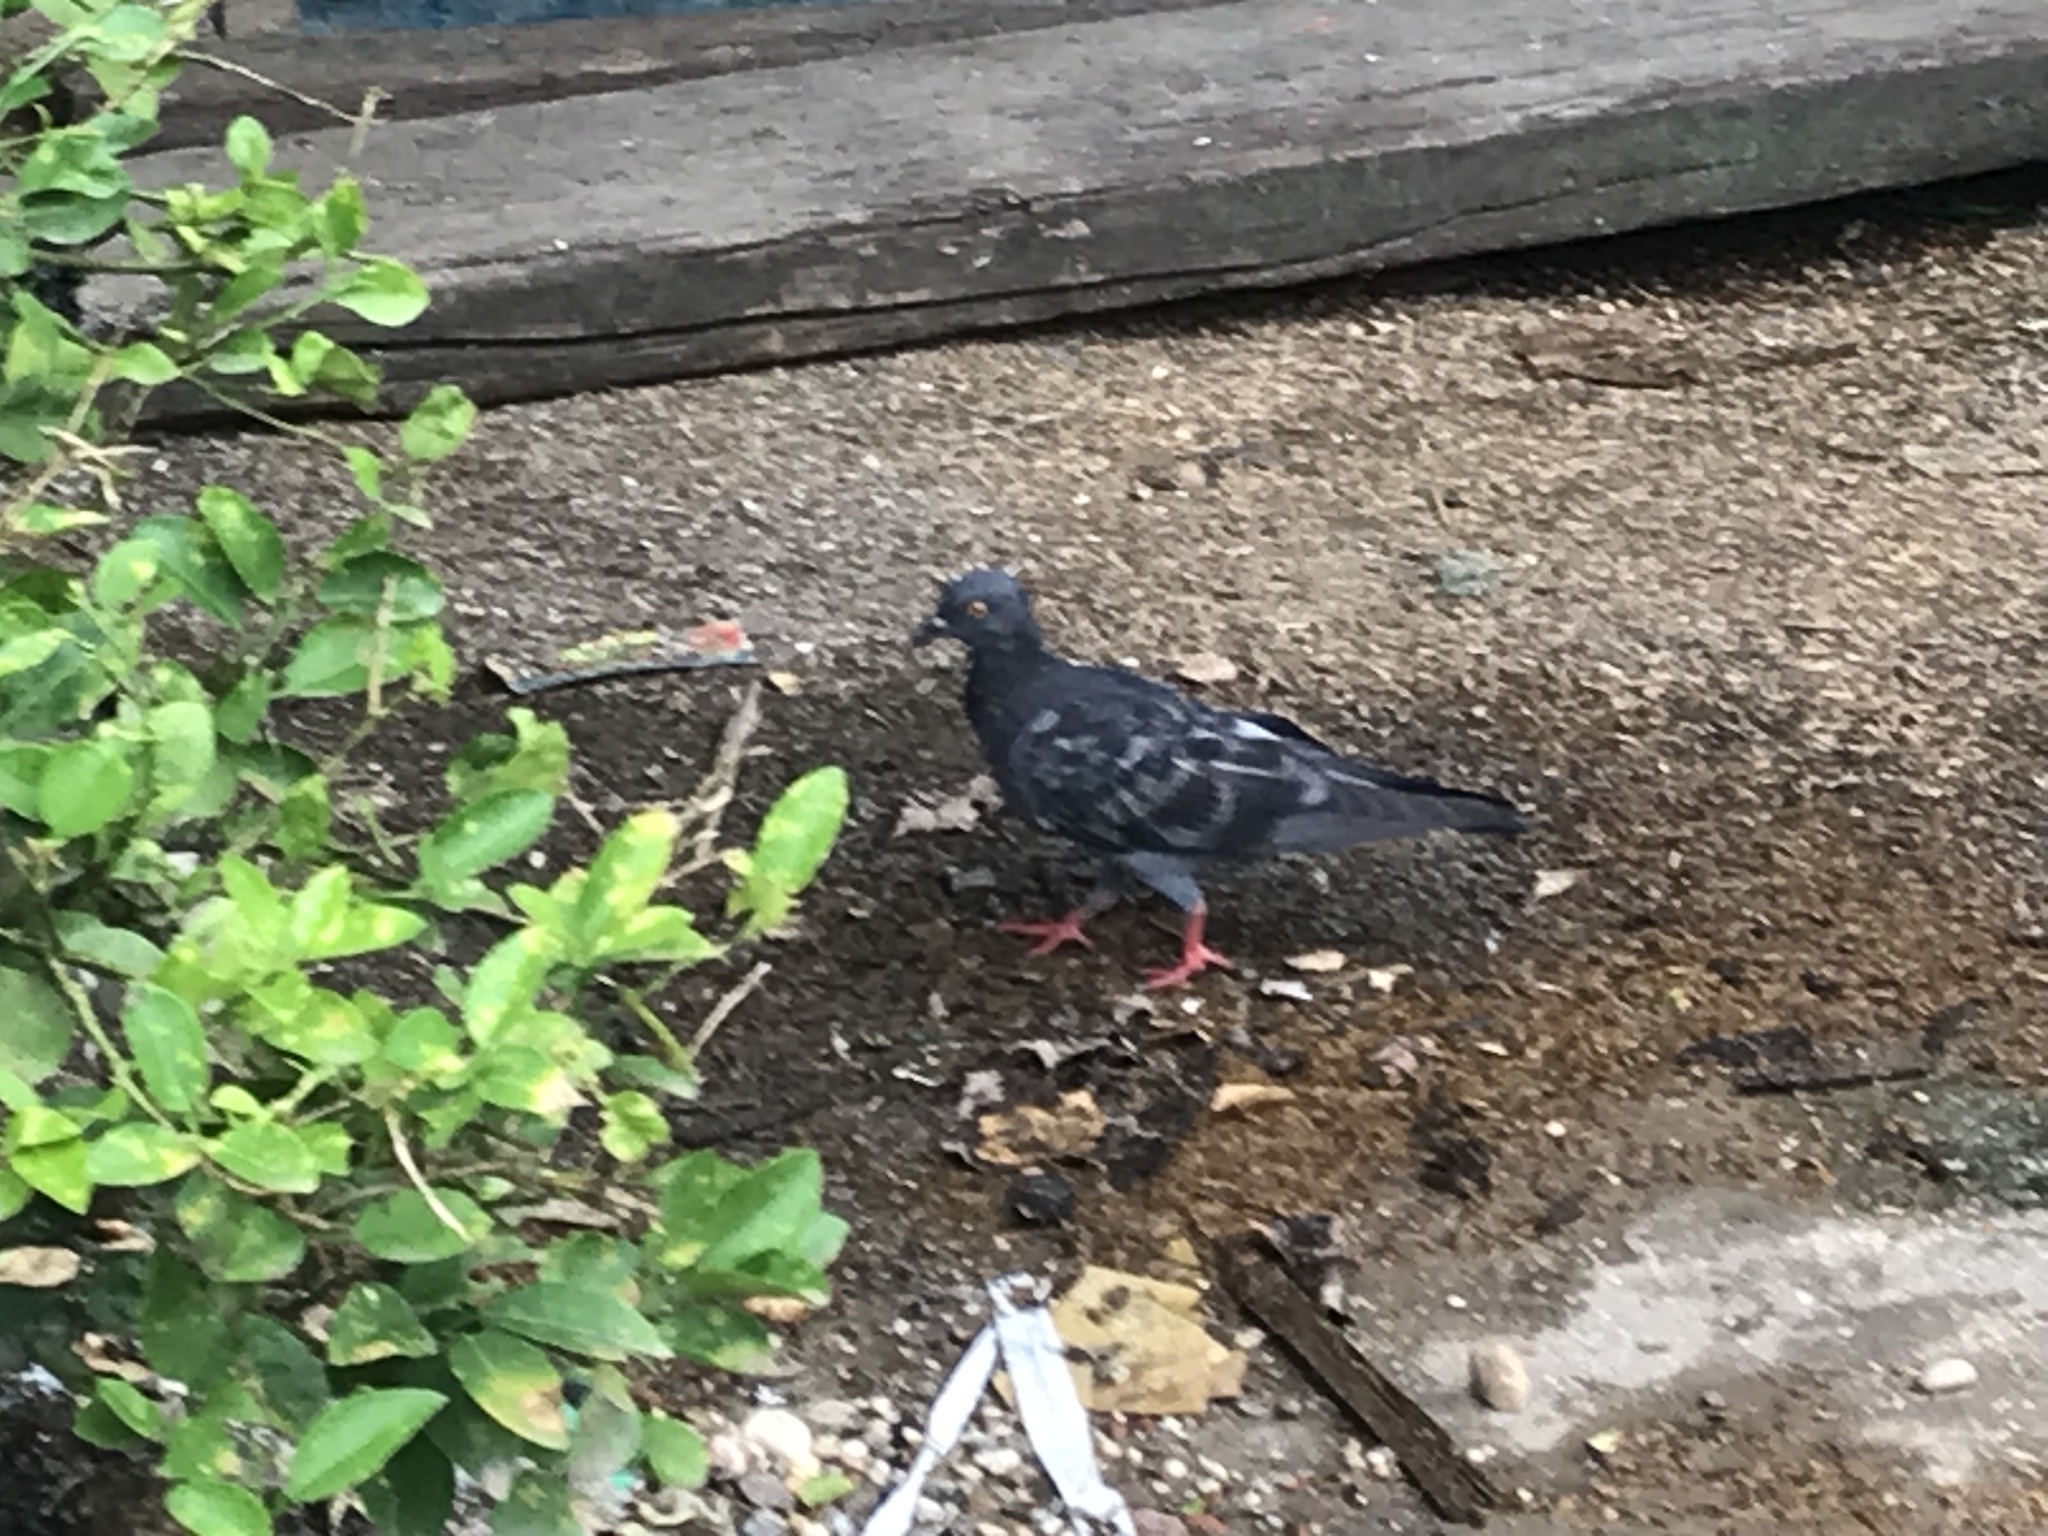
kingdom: Animalia
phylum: Chordata
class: Aves
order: Columbiformes
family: Columbidae
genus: Columba
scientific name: Columba livia
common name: Rock pigeon
